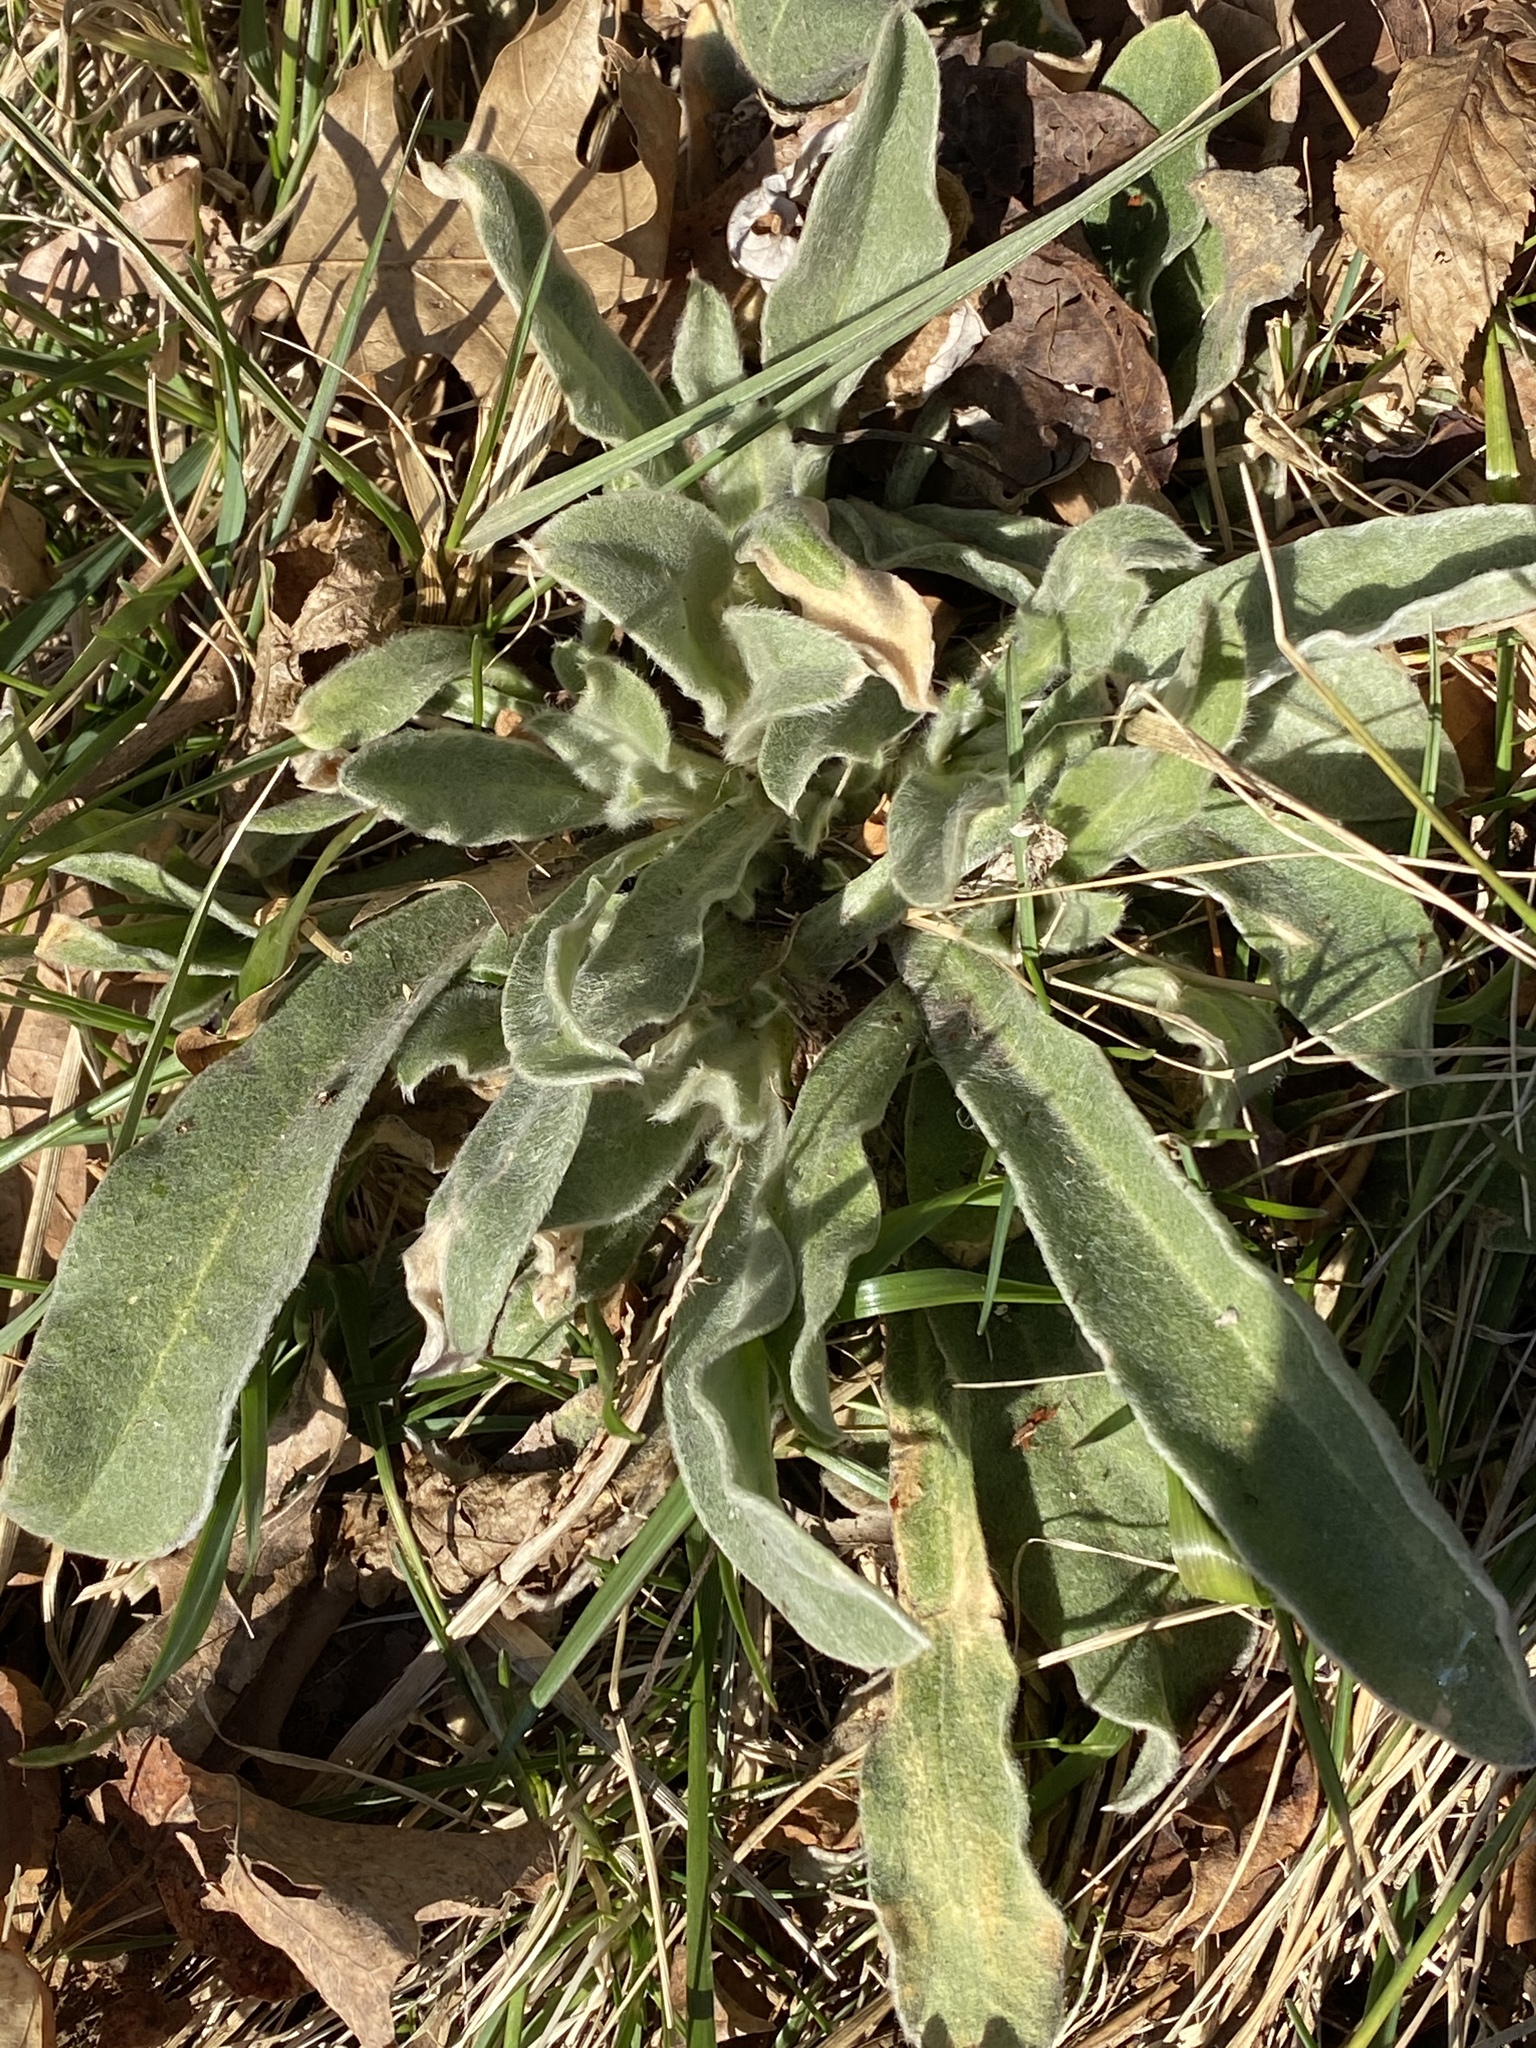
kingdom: Plantae
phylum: Tracheophyta
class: Magnoliopsida
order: Caryophyllales
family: Caryophyllaceae
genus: Silene
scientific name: Silene coronaria
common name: Rose campion
